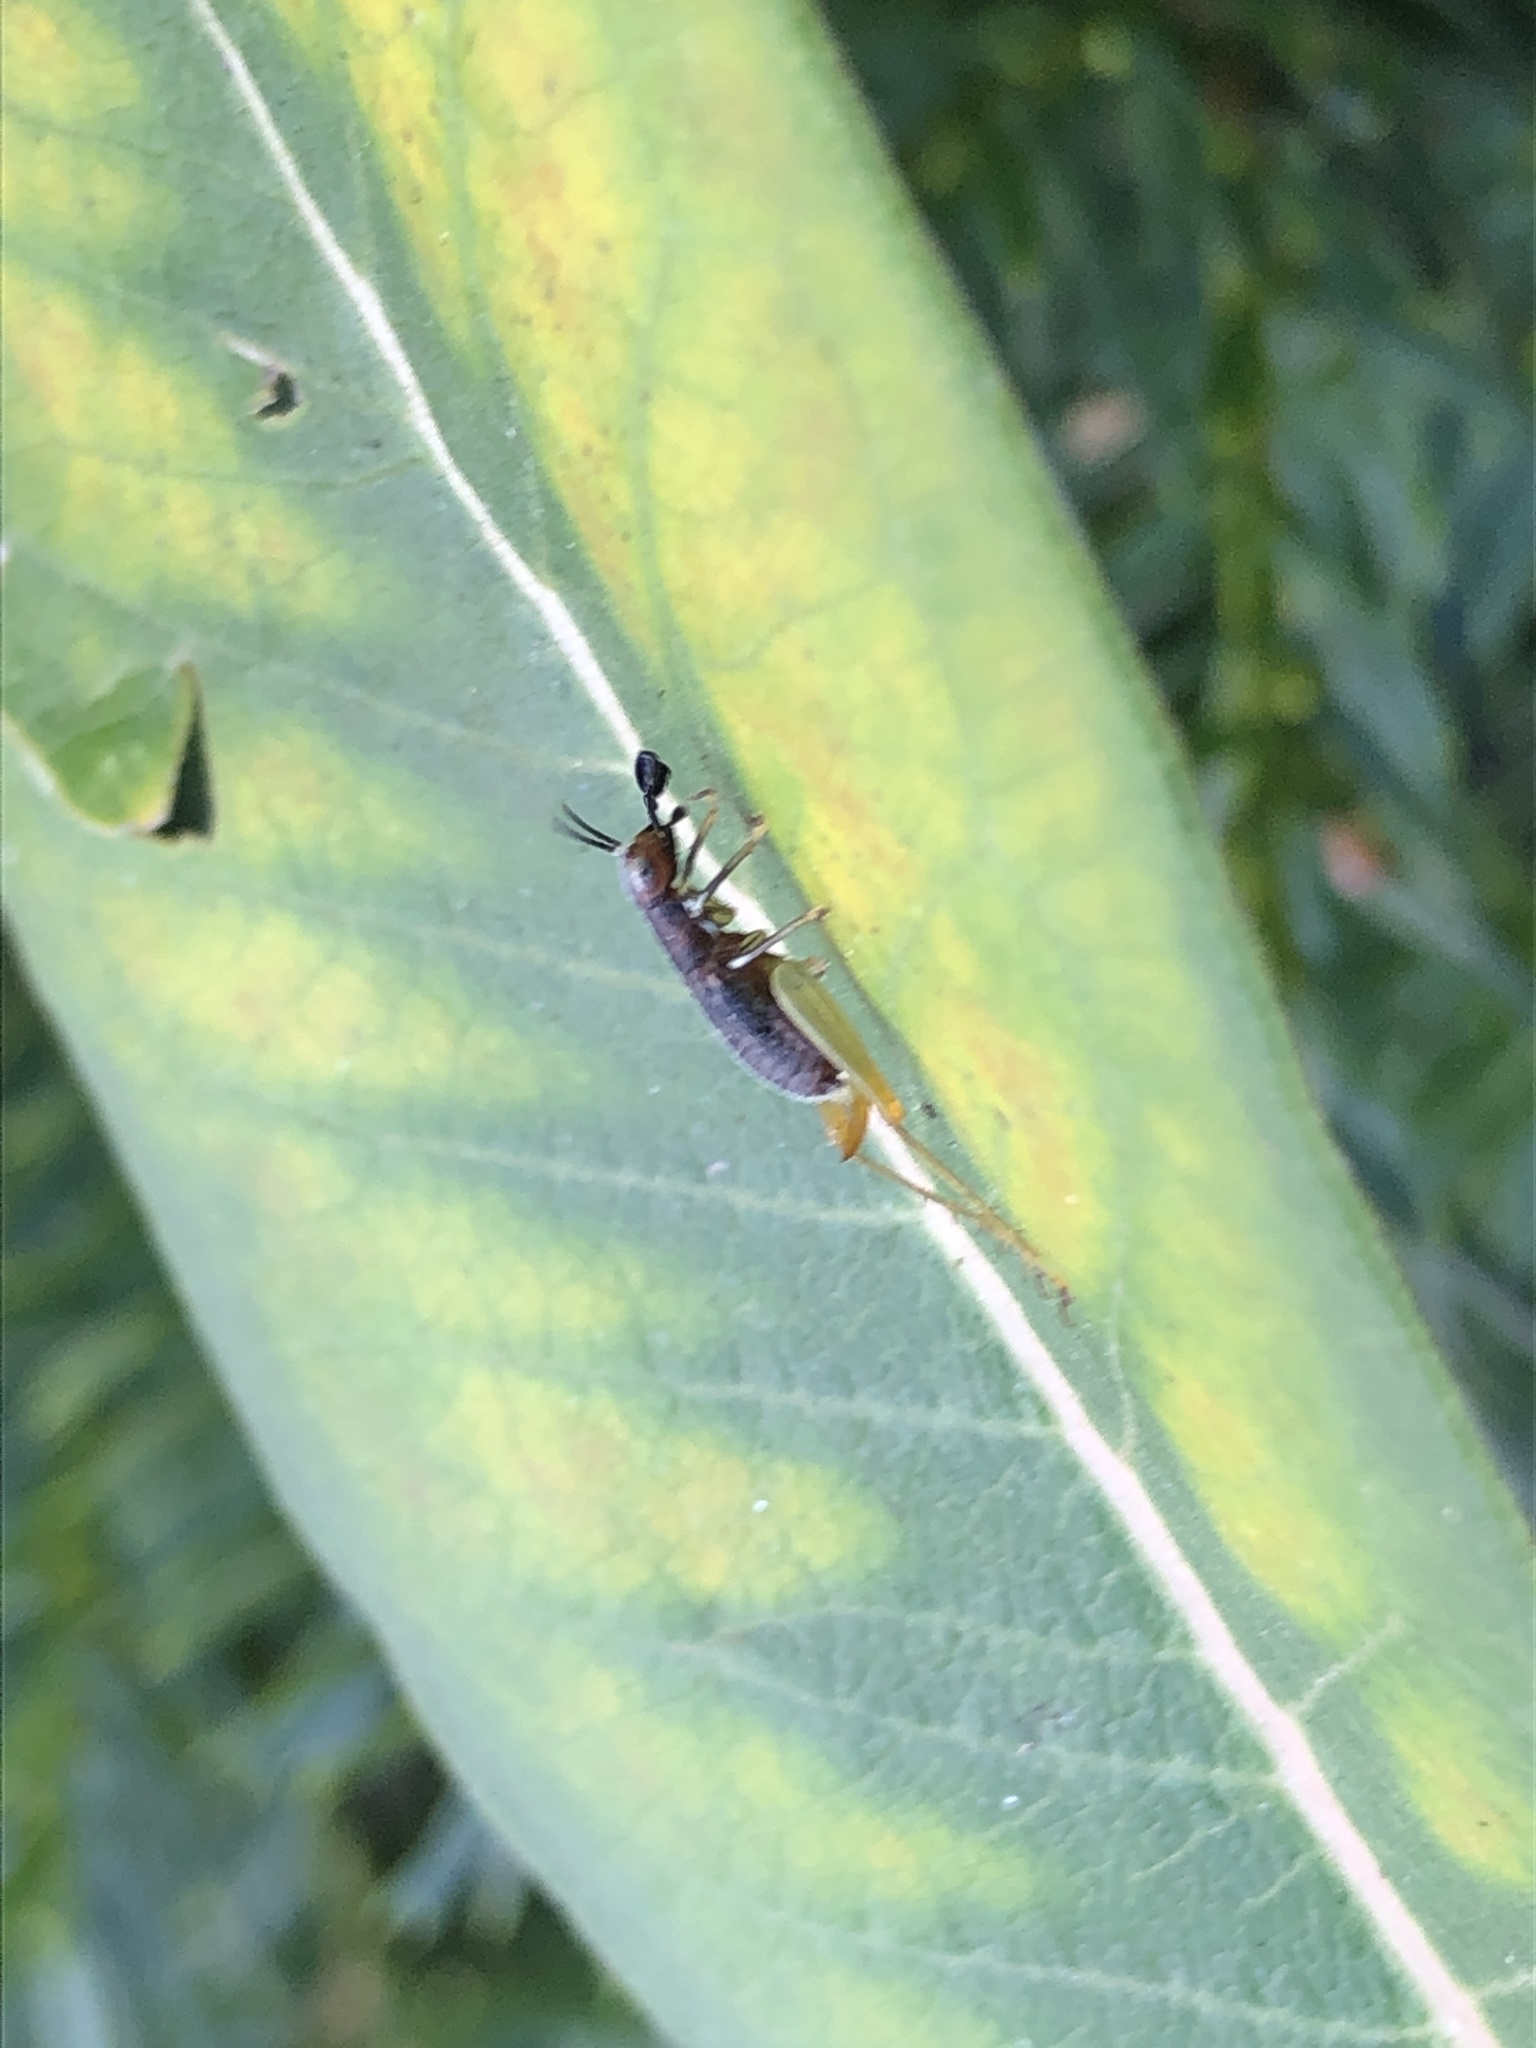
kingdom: Animalia
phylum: Arthropoda
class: Insecta
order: Orthoptera
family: Trigonidiidae
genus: Phyllopalpus
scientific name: Phyllopalpus pulchellus
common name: Handsome trig
